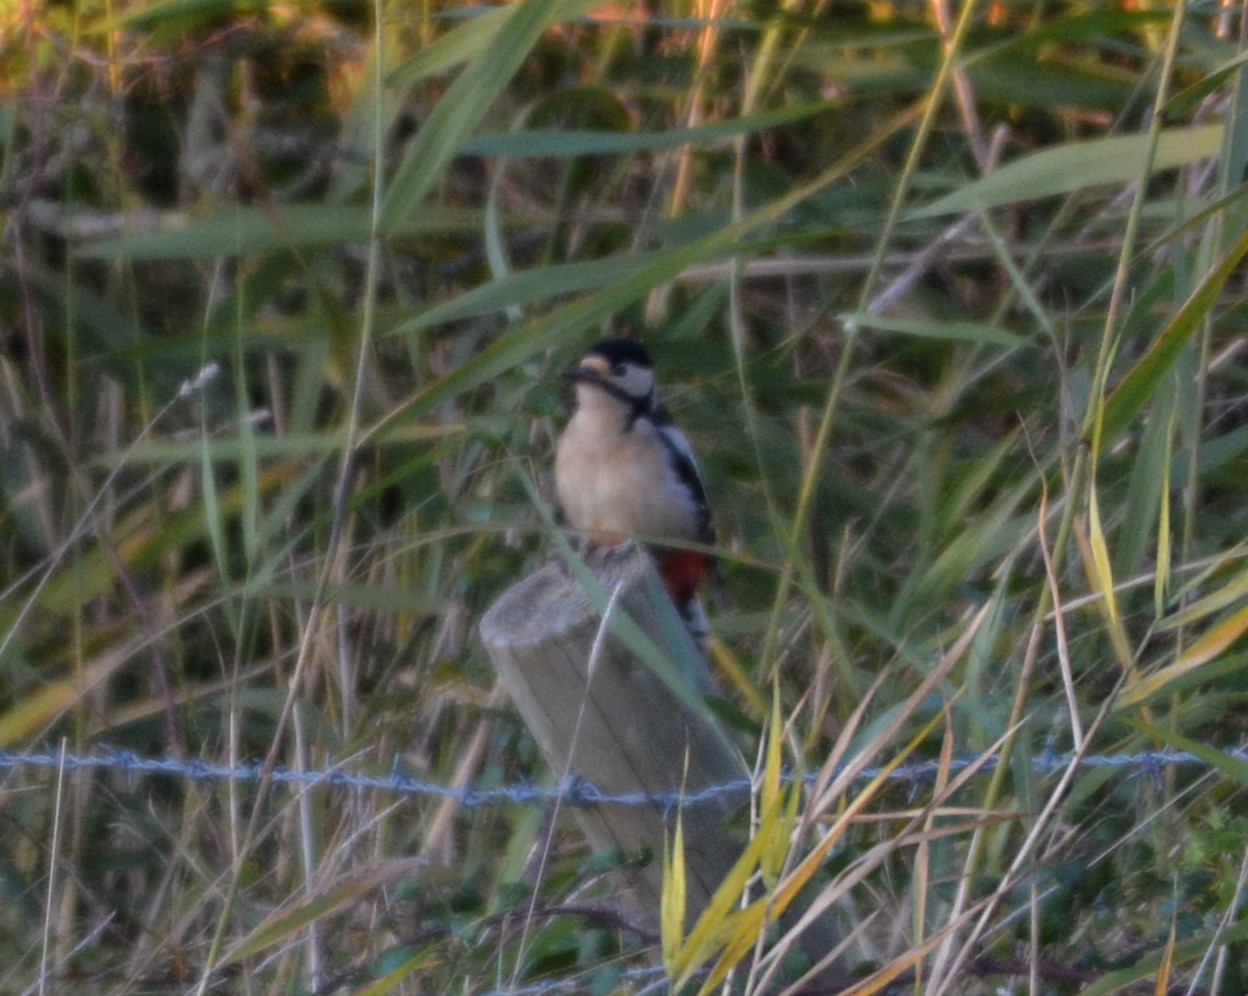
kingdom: Animalia
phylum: Chordata
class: Aves
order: Piciformes
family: Picidae
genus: Dendrocopos
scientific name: Dendrocopos major
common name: Great spotted woodpecker
